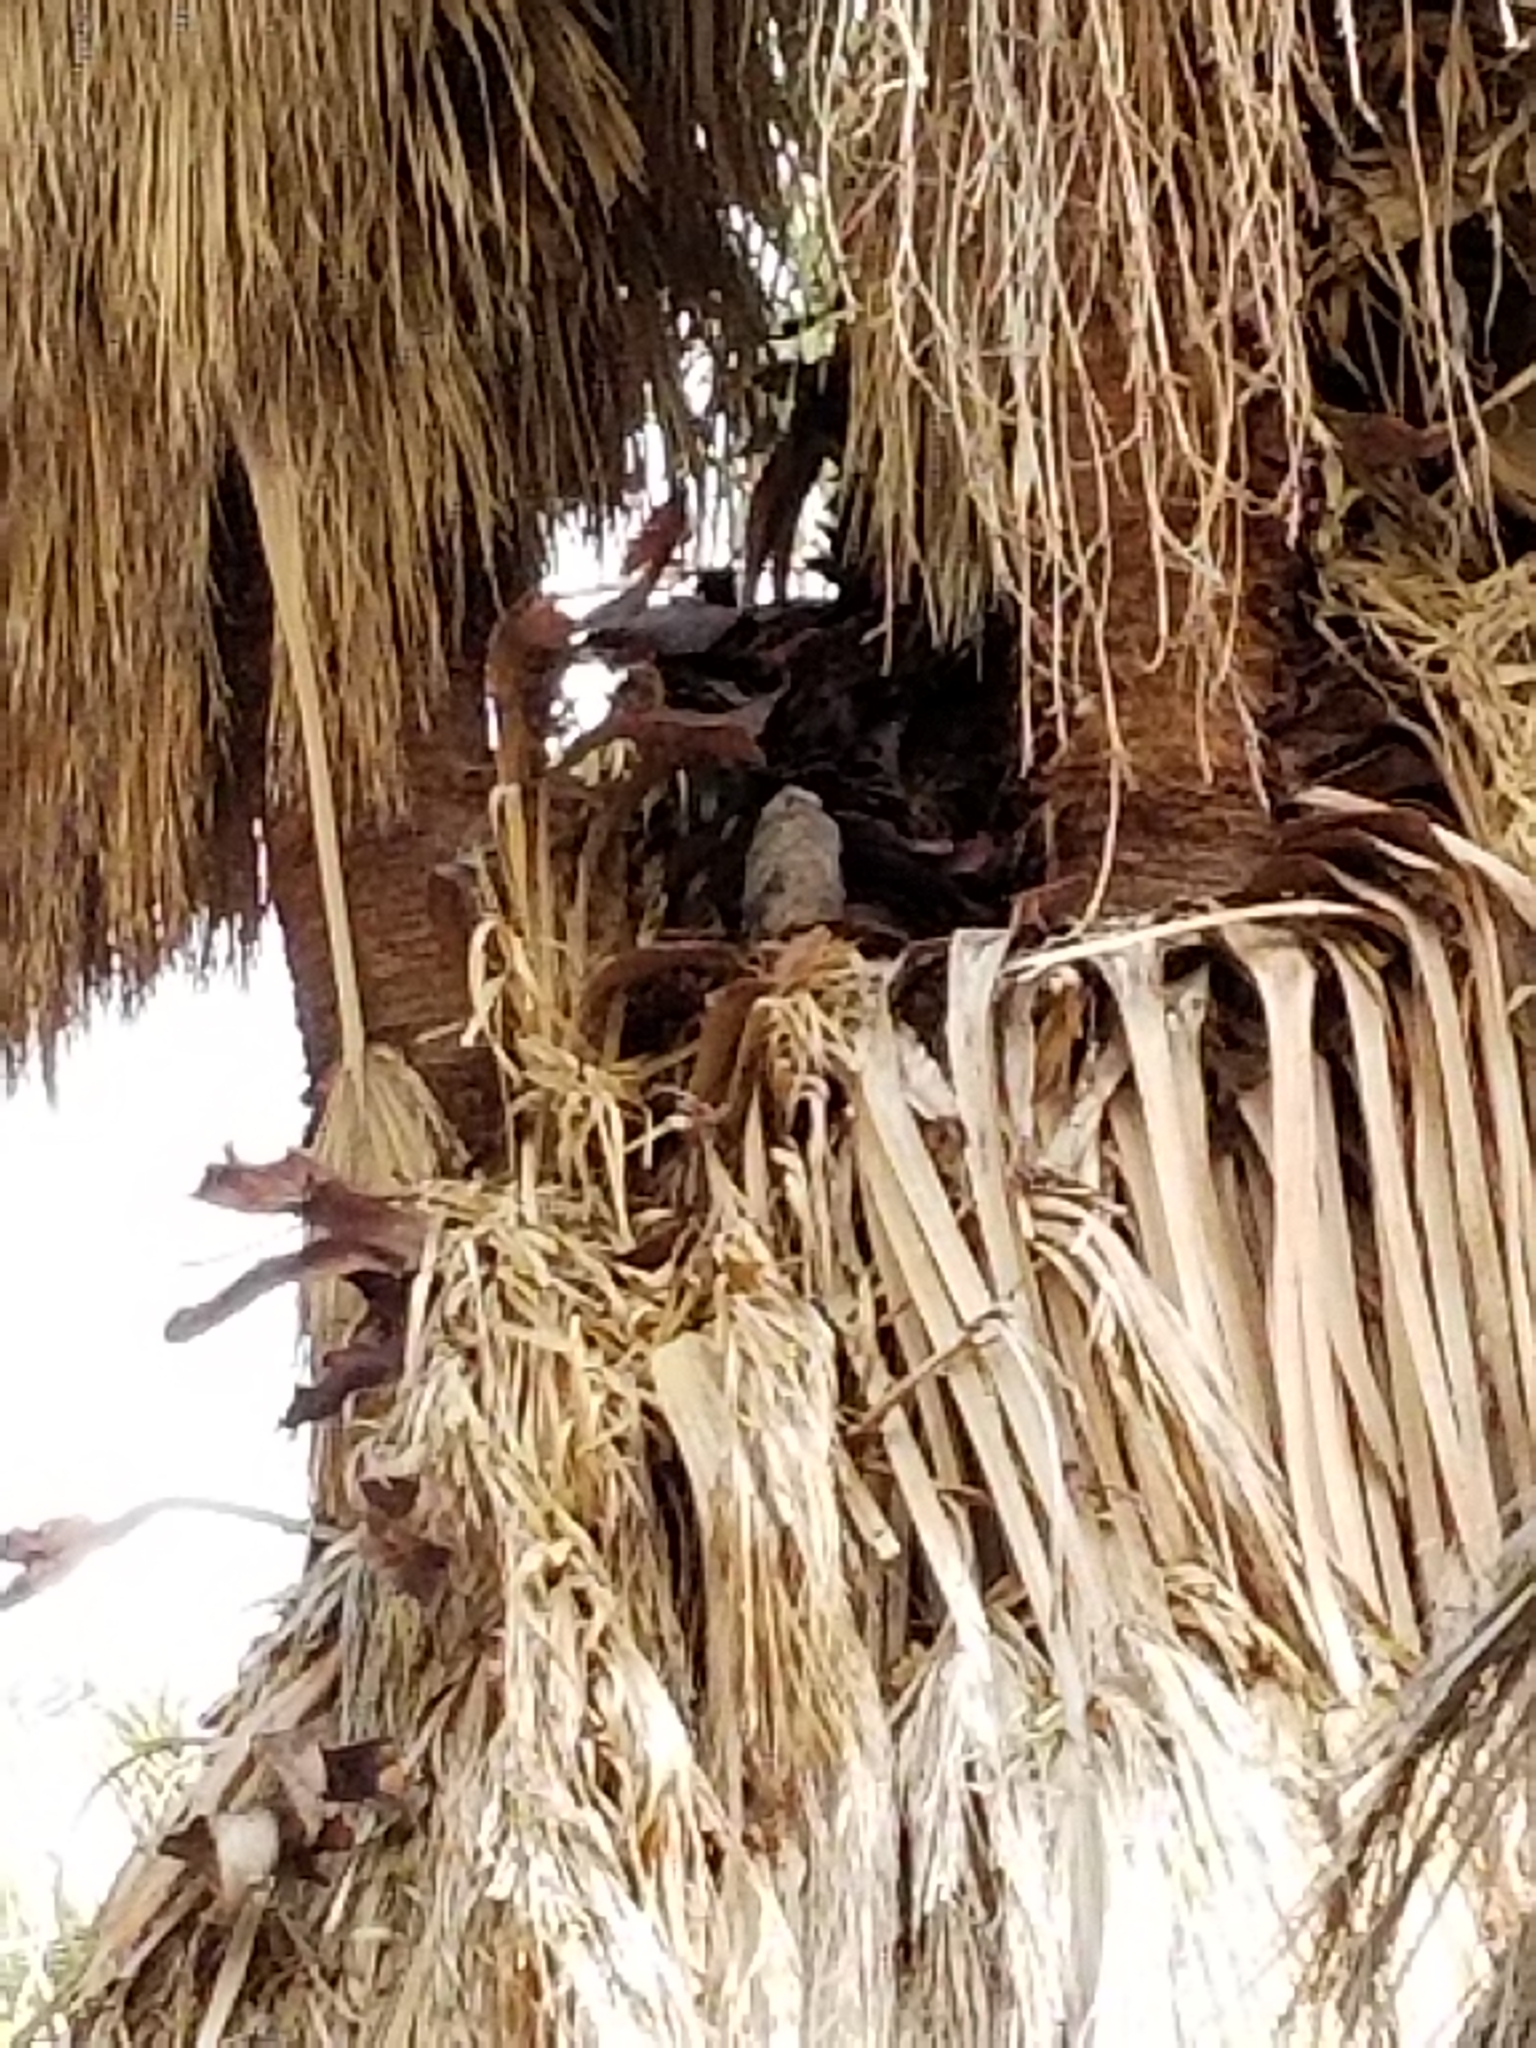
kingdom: Animalia
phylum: Chordata
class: Aves
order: Strigiformes
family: Strigidae
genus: Bubo
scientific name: Bubo virginianus
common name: Great horned owl
